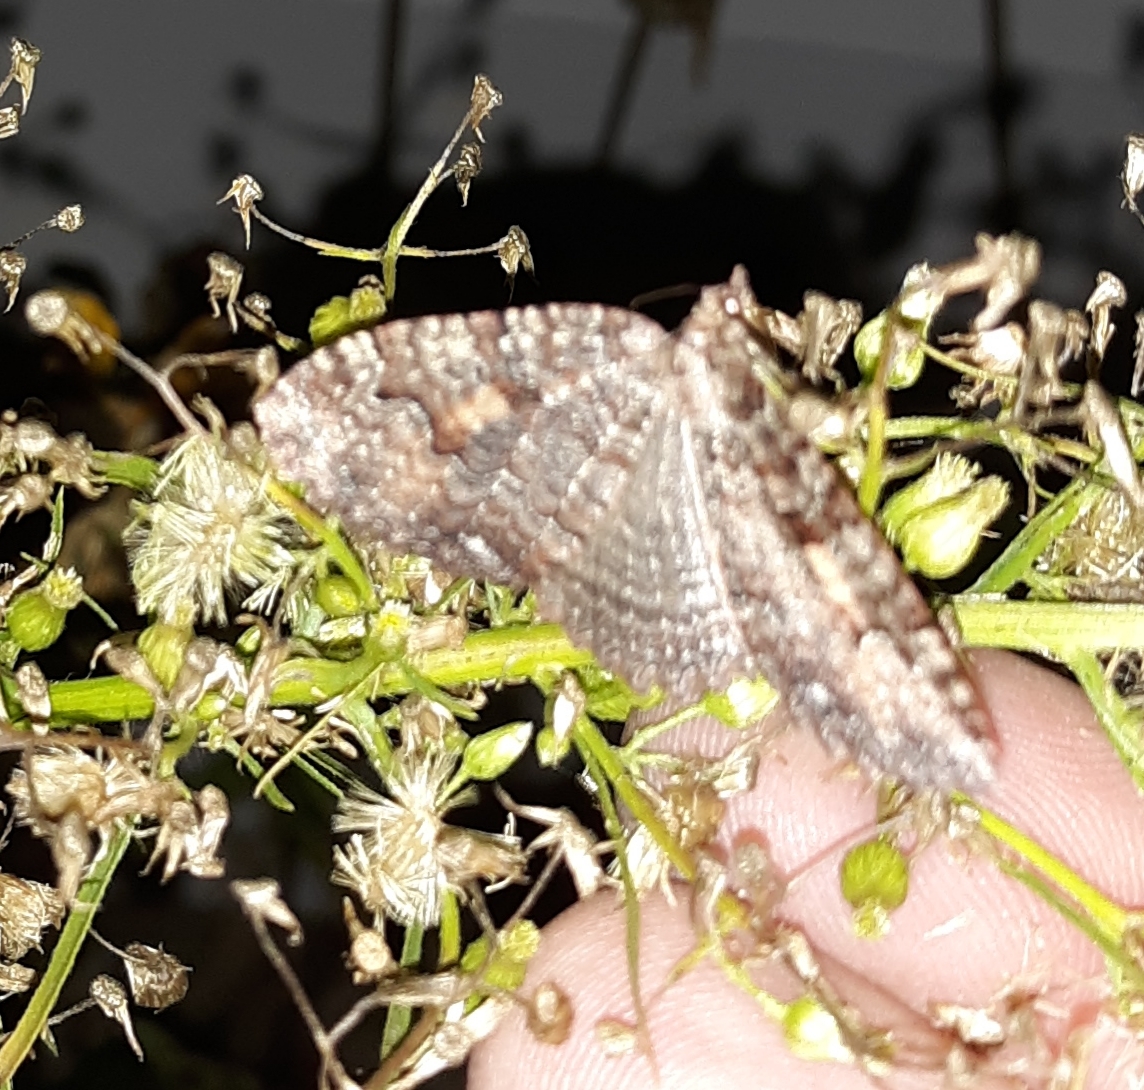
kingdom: Animalia
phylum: Arthropoda
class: Insecta
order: Lepidoptera
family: Geometridae
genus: Triphosa
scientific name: Triphosa haesitata
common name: Tissue moth
